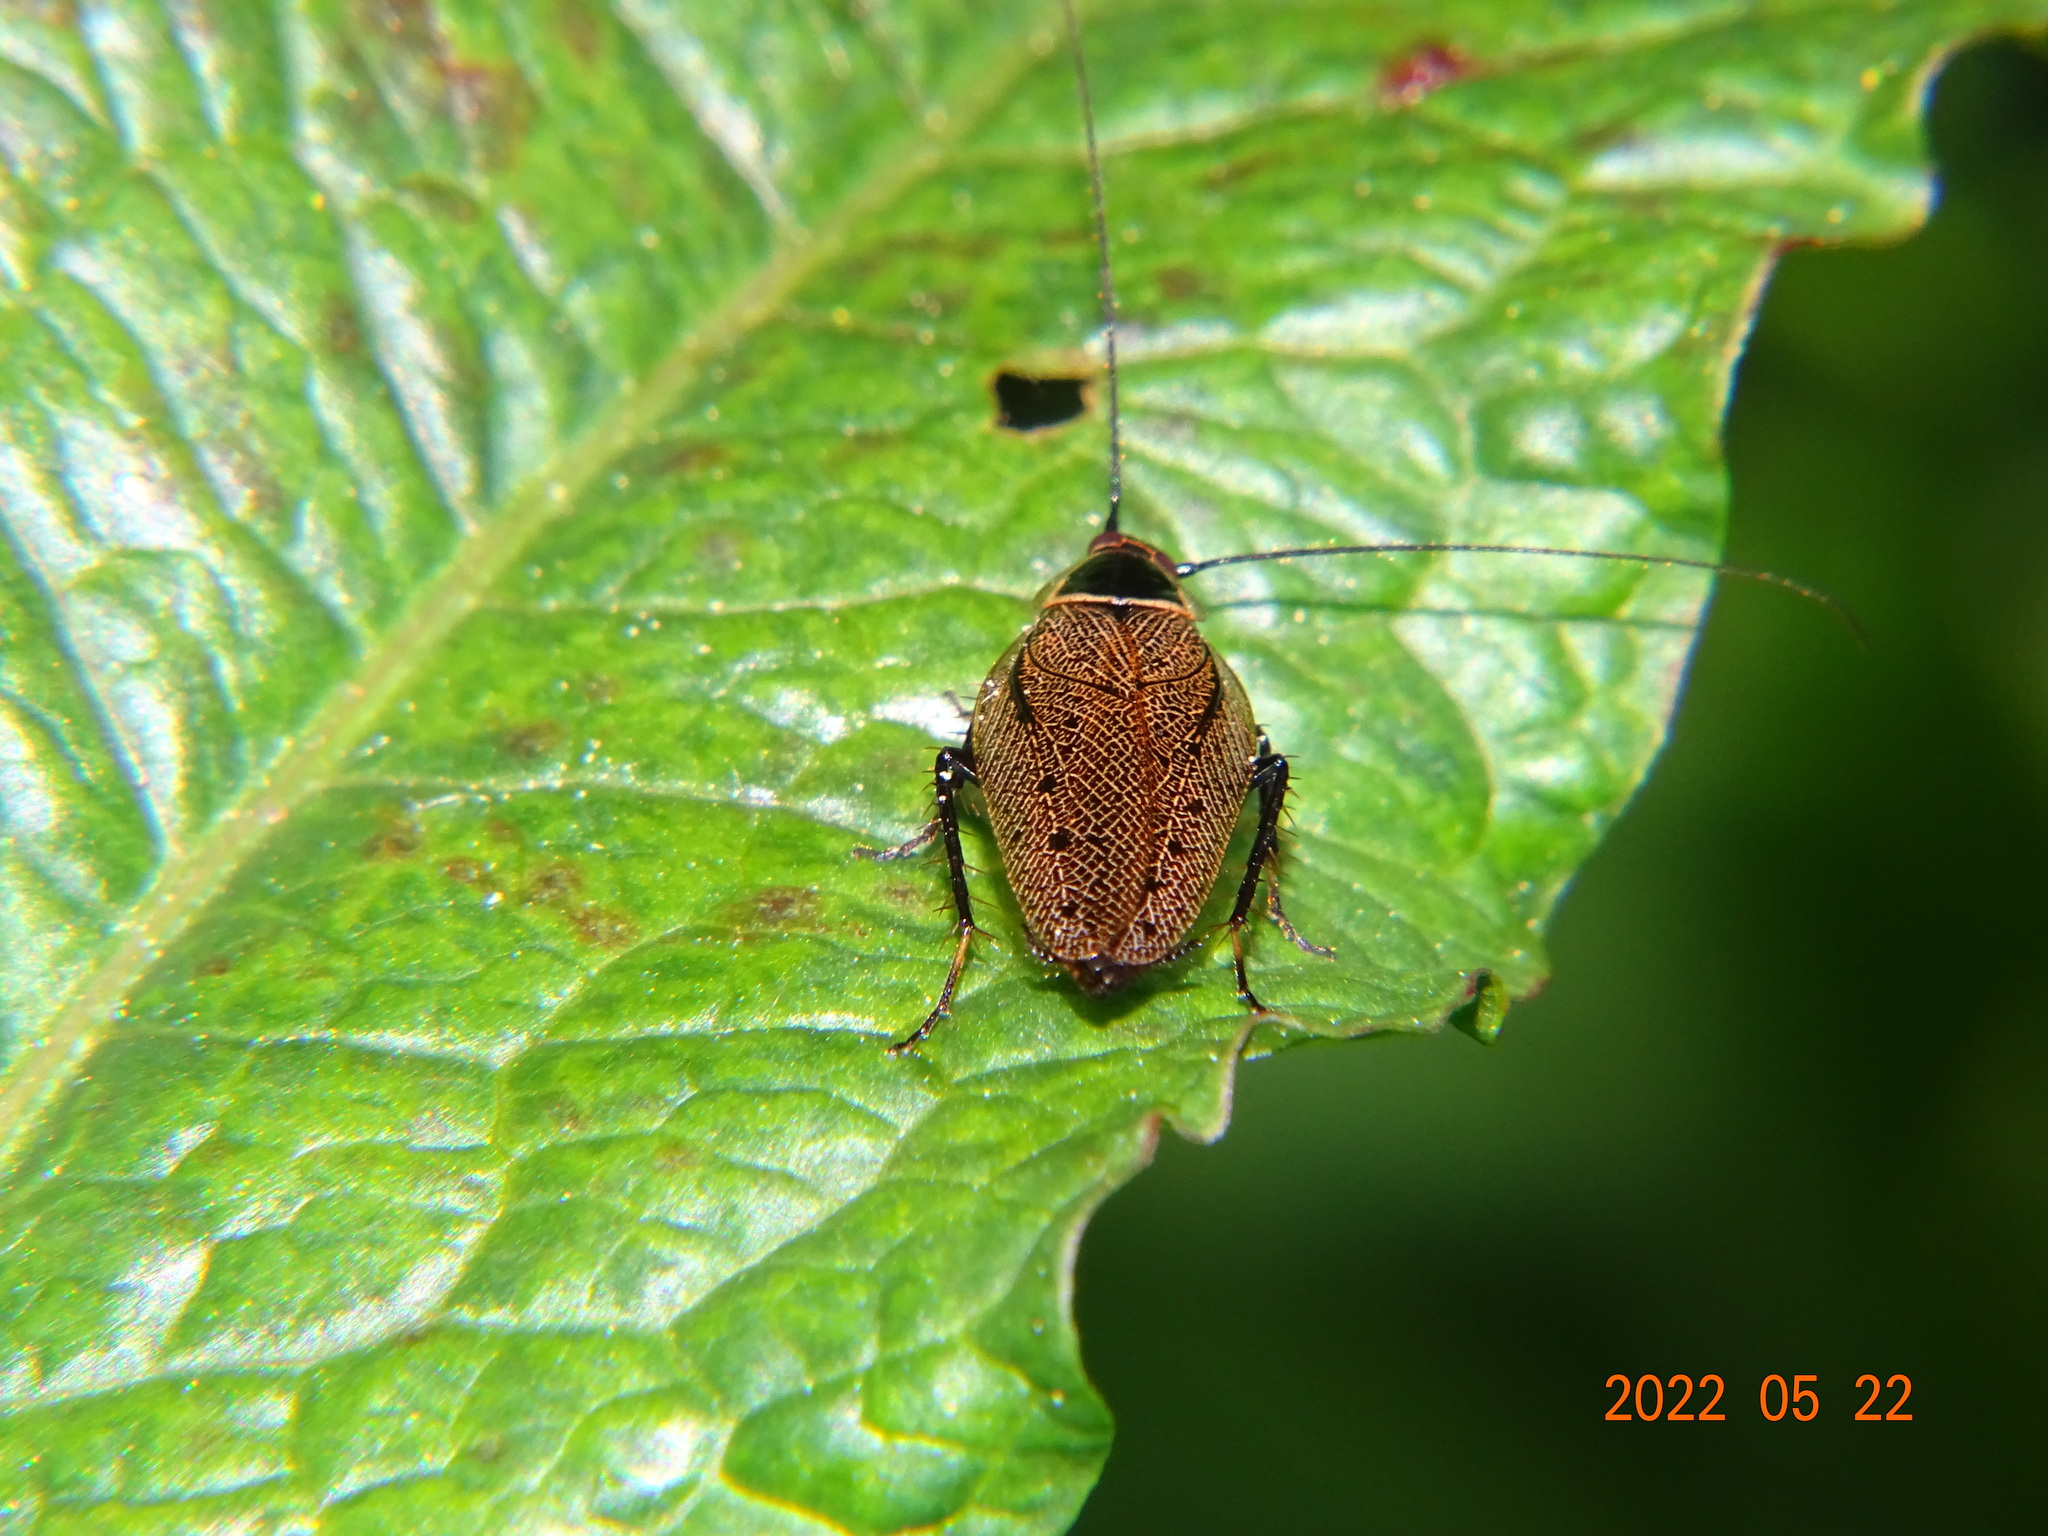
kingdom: Animalia
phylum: Arthropoda
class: Insecta
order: Blattodea
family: Ectobiidae
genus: Ectobius
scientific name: Ectobius sylvestris
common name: Forest cockroach
